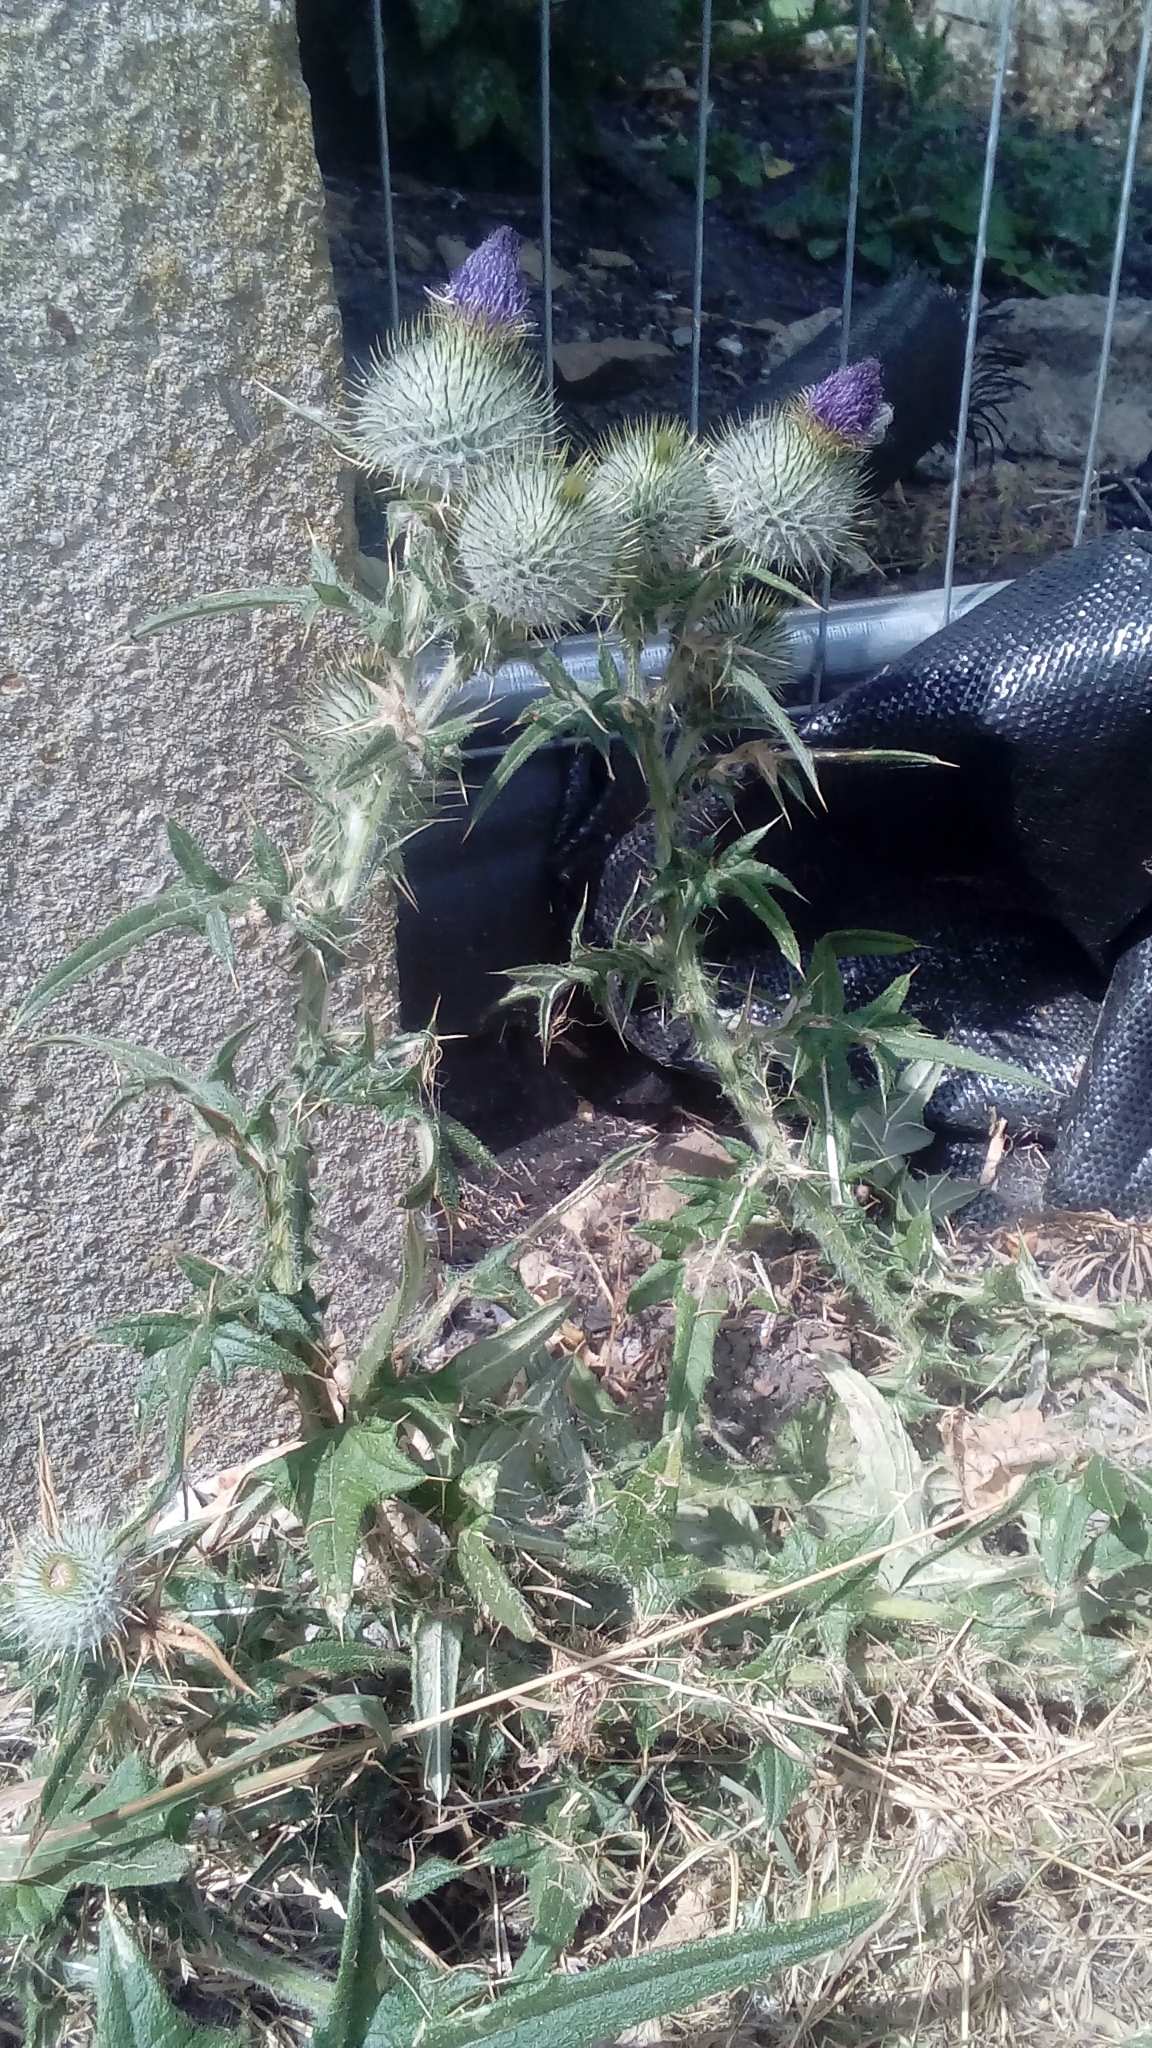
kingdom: Plantae
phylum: Tracheophyta
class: Magnoliopsida
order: Asterales
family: Asteraceae
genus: Cirsium
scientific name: Cirsium vulgare
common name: Bull thistle
